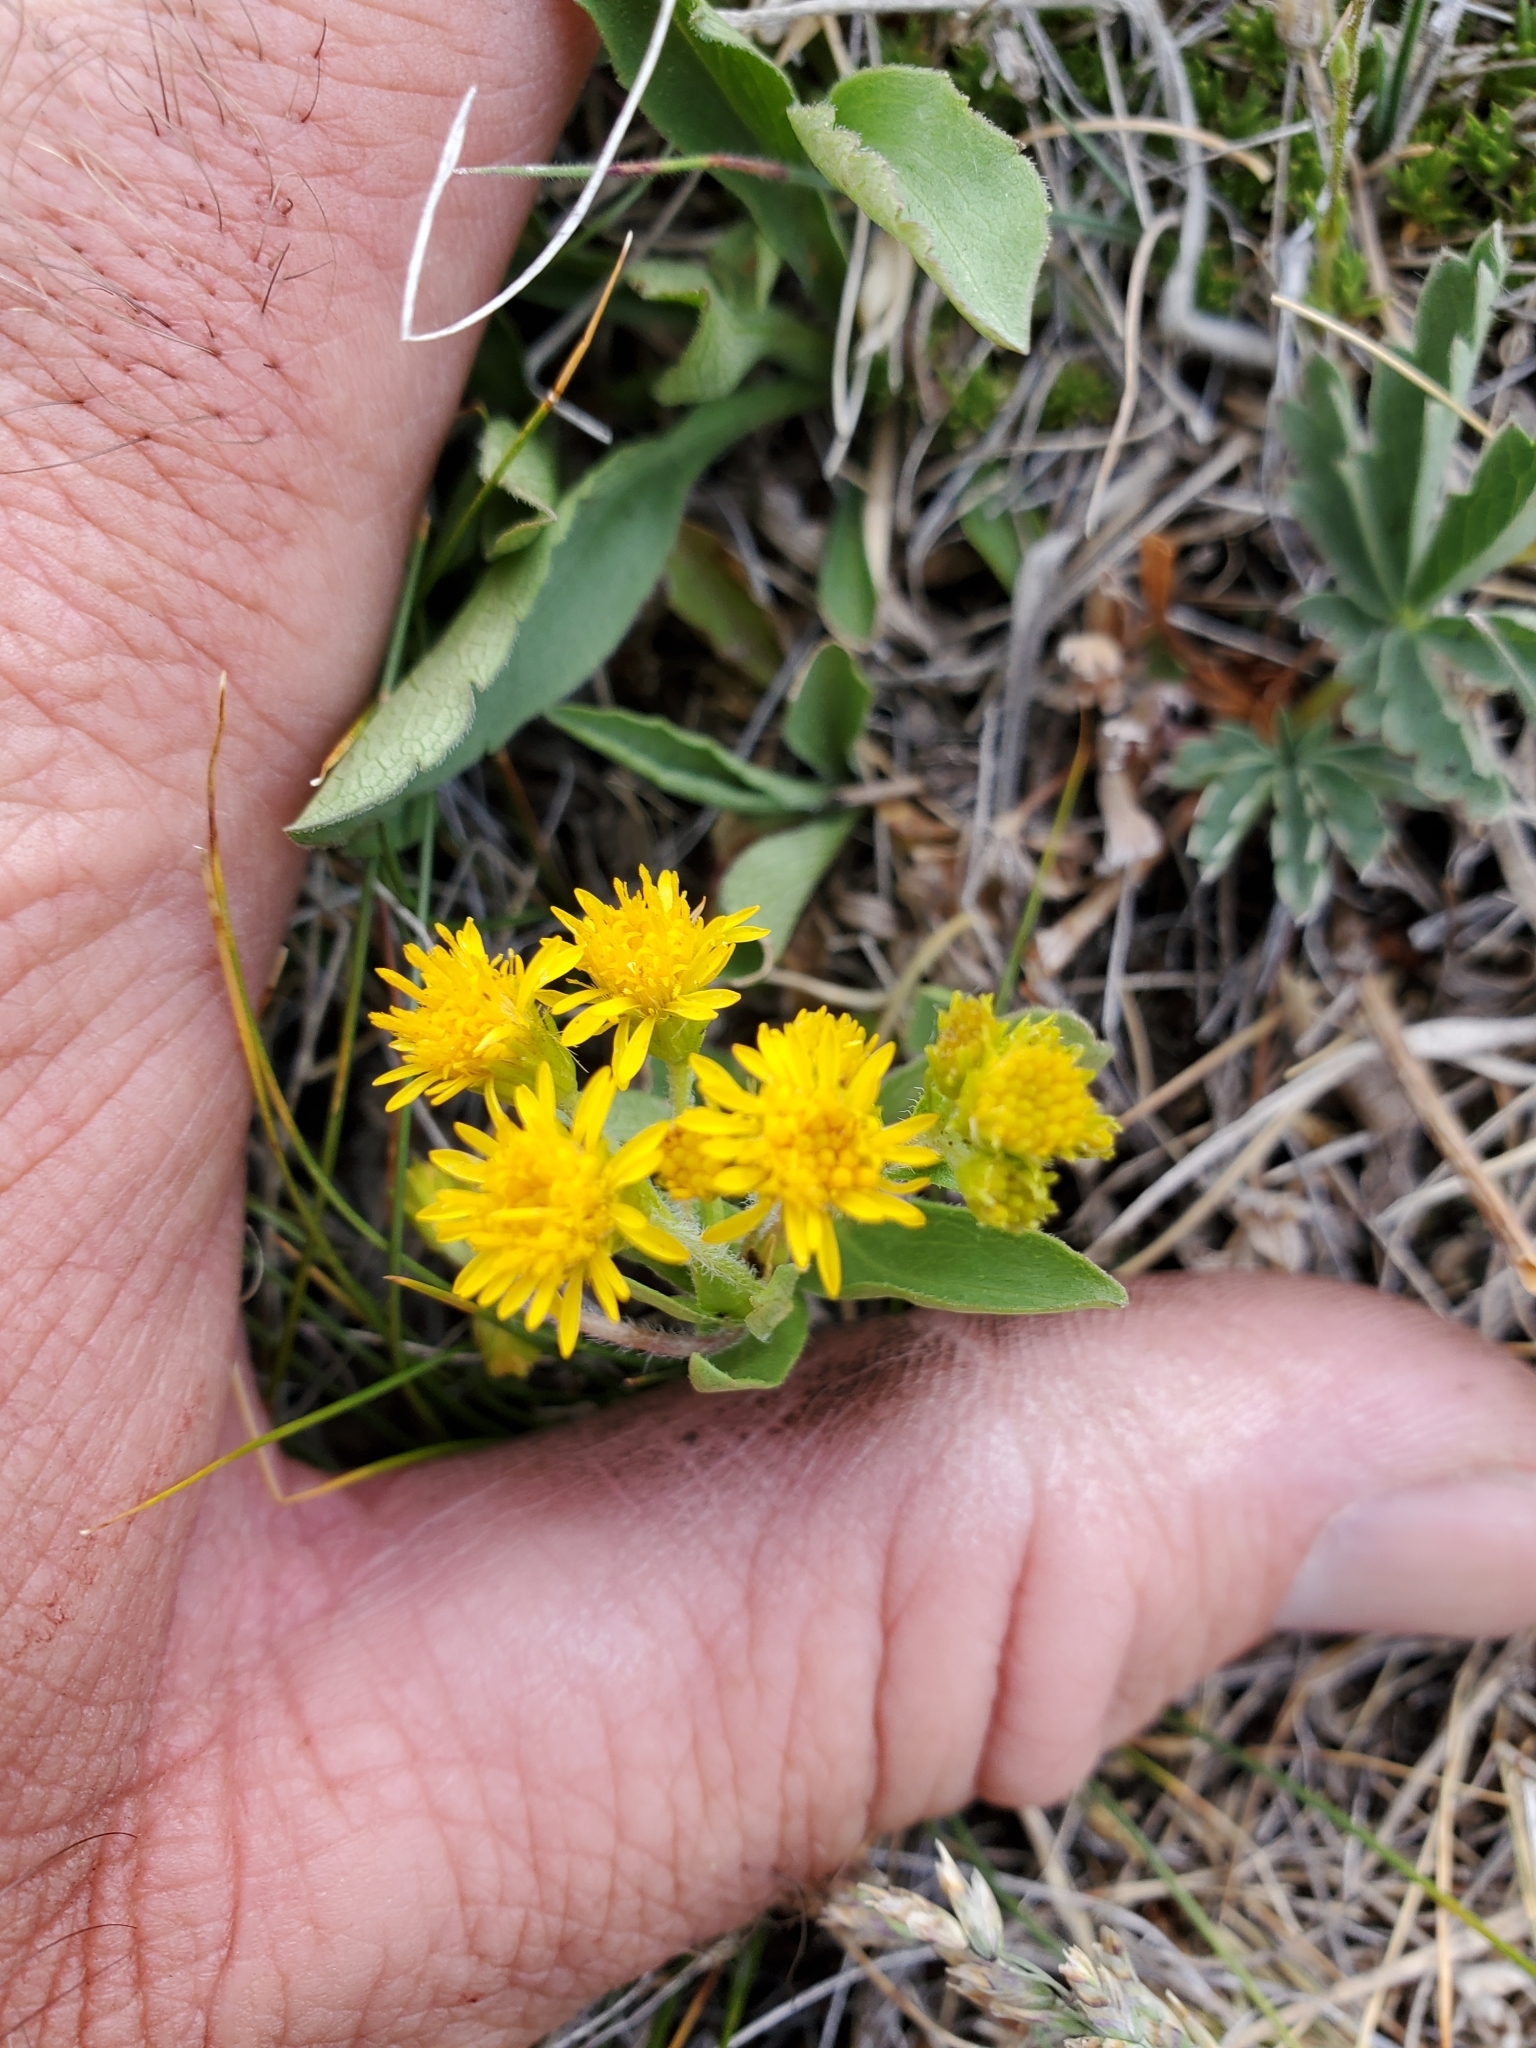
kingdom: Plantae
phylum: Tracheophyta
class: Magnoliopsida
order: Asterales
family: Asteraceae
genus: Solidago
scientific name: Solidago multiradiata
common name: Northern goldenrod
